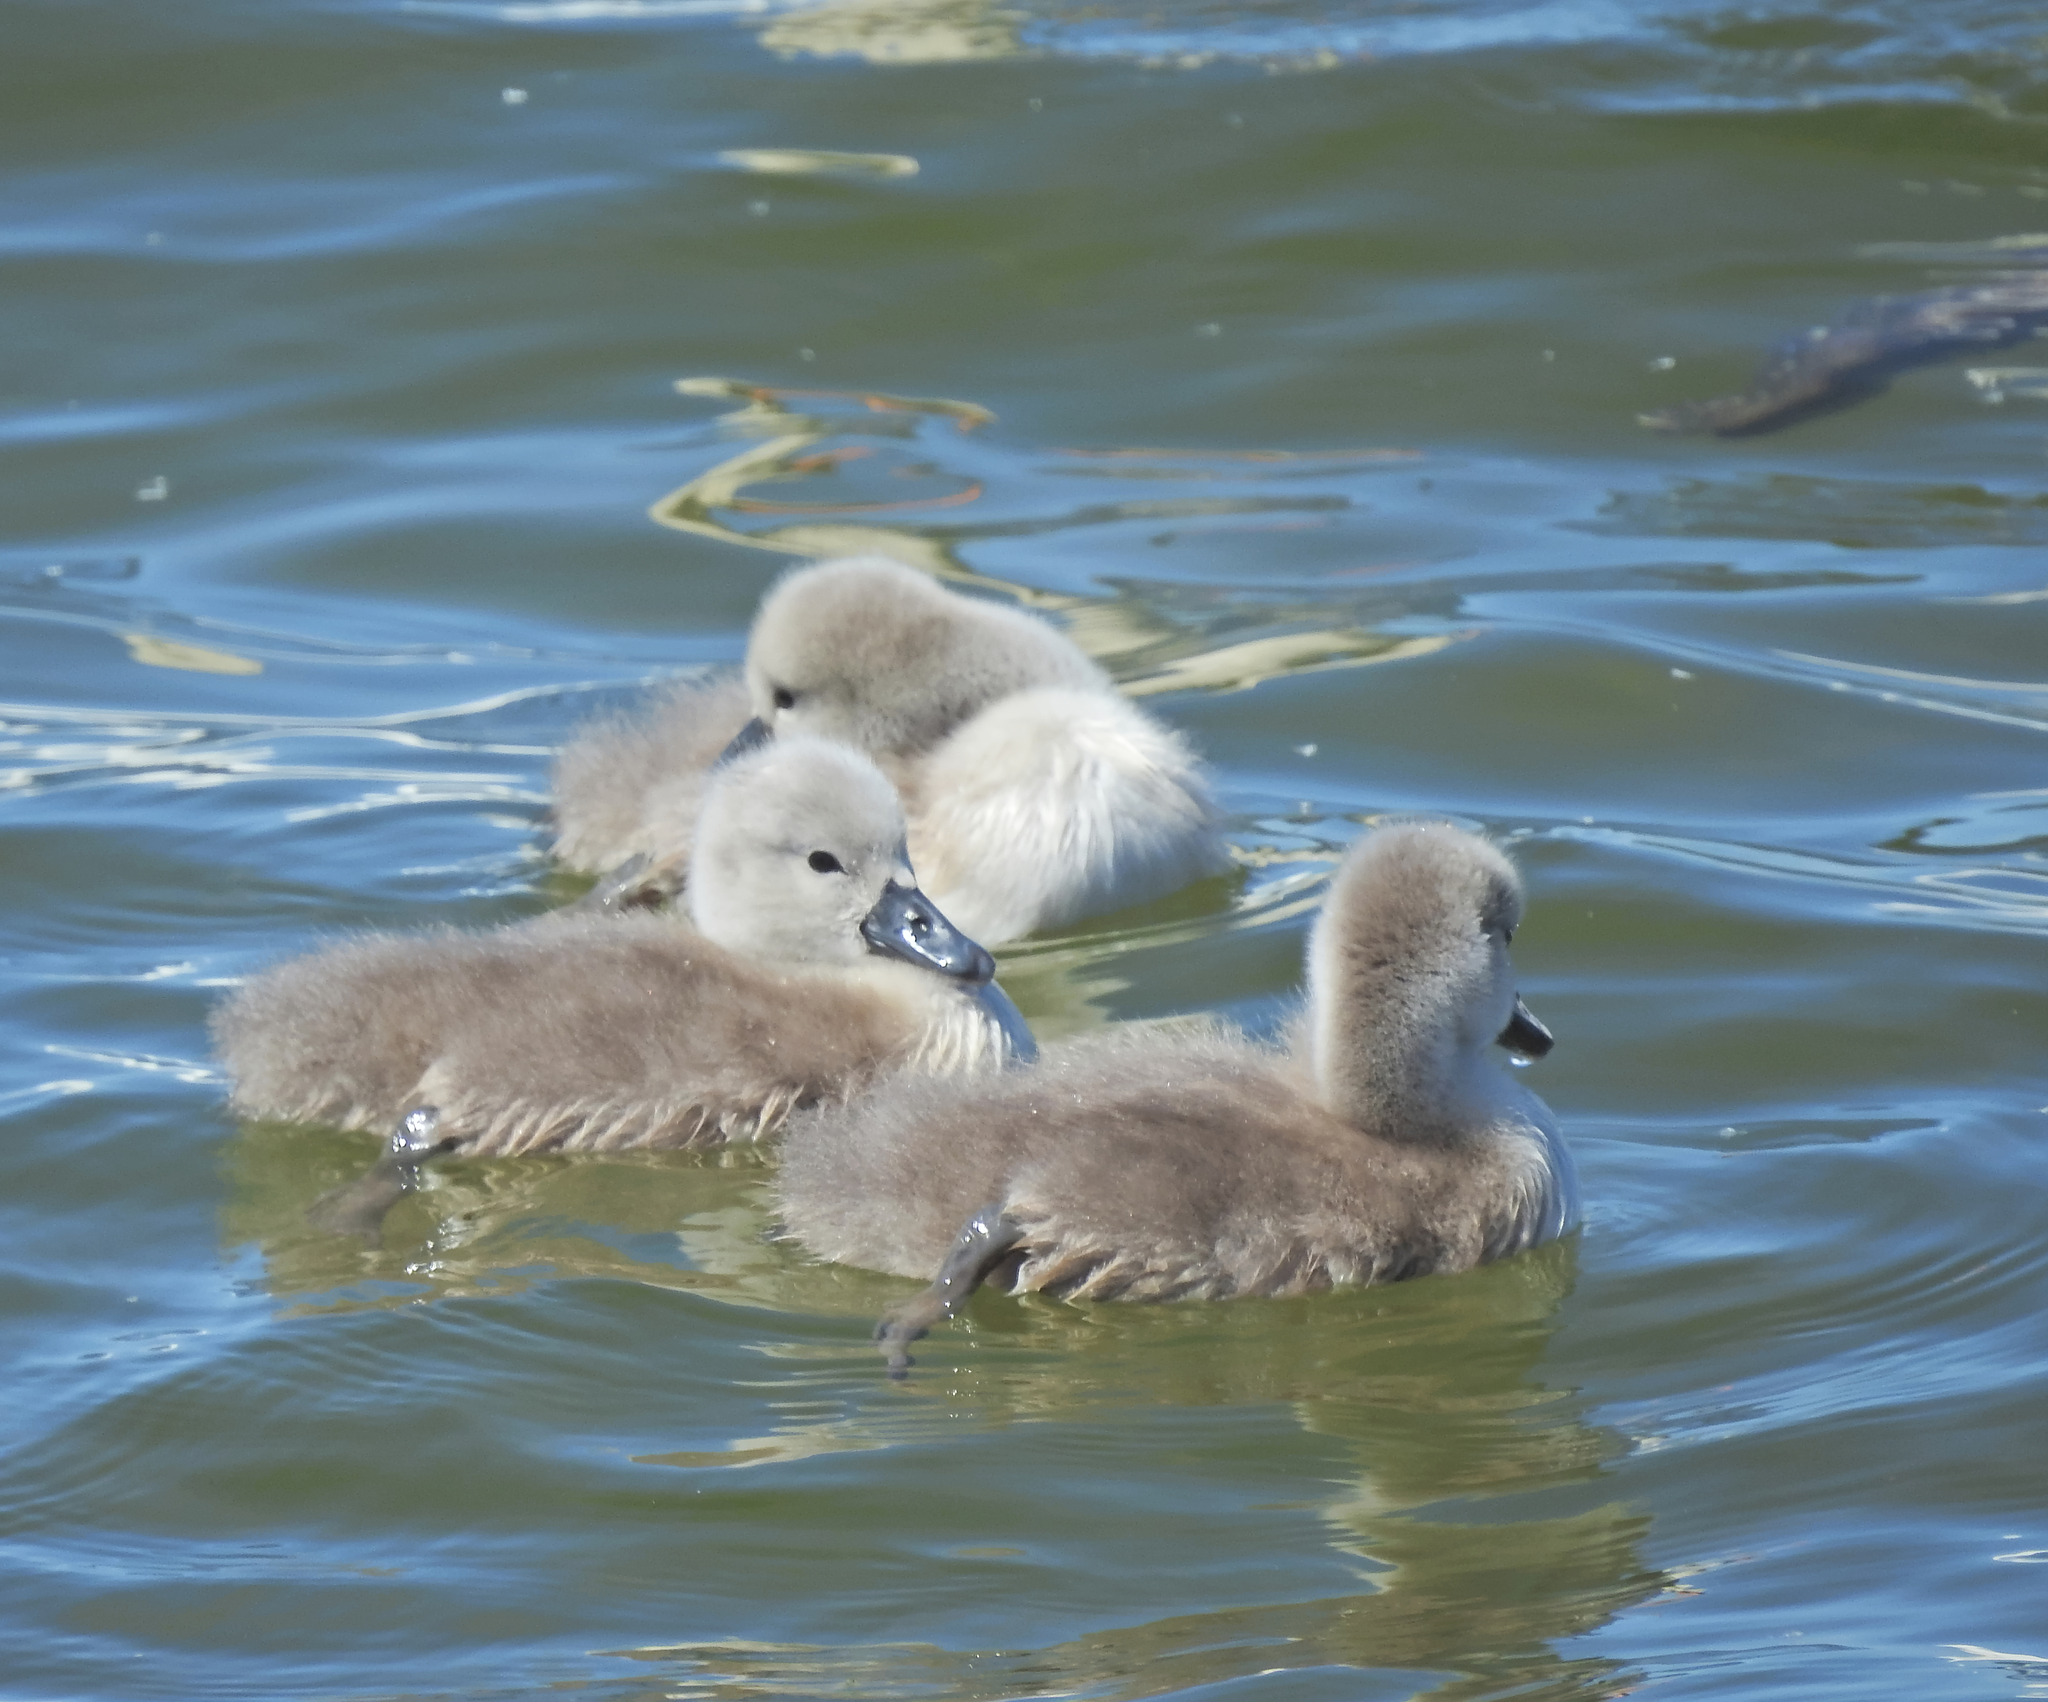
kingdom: Animalia
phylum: Chordata
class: Aves
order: Anseriformes
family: Anatidae
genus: Cygnus
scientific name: Cygnus olor
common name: Mute swan
